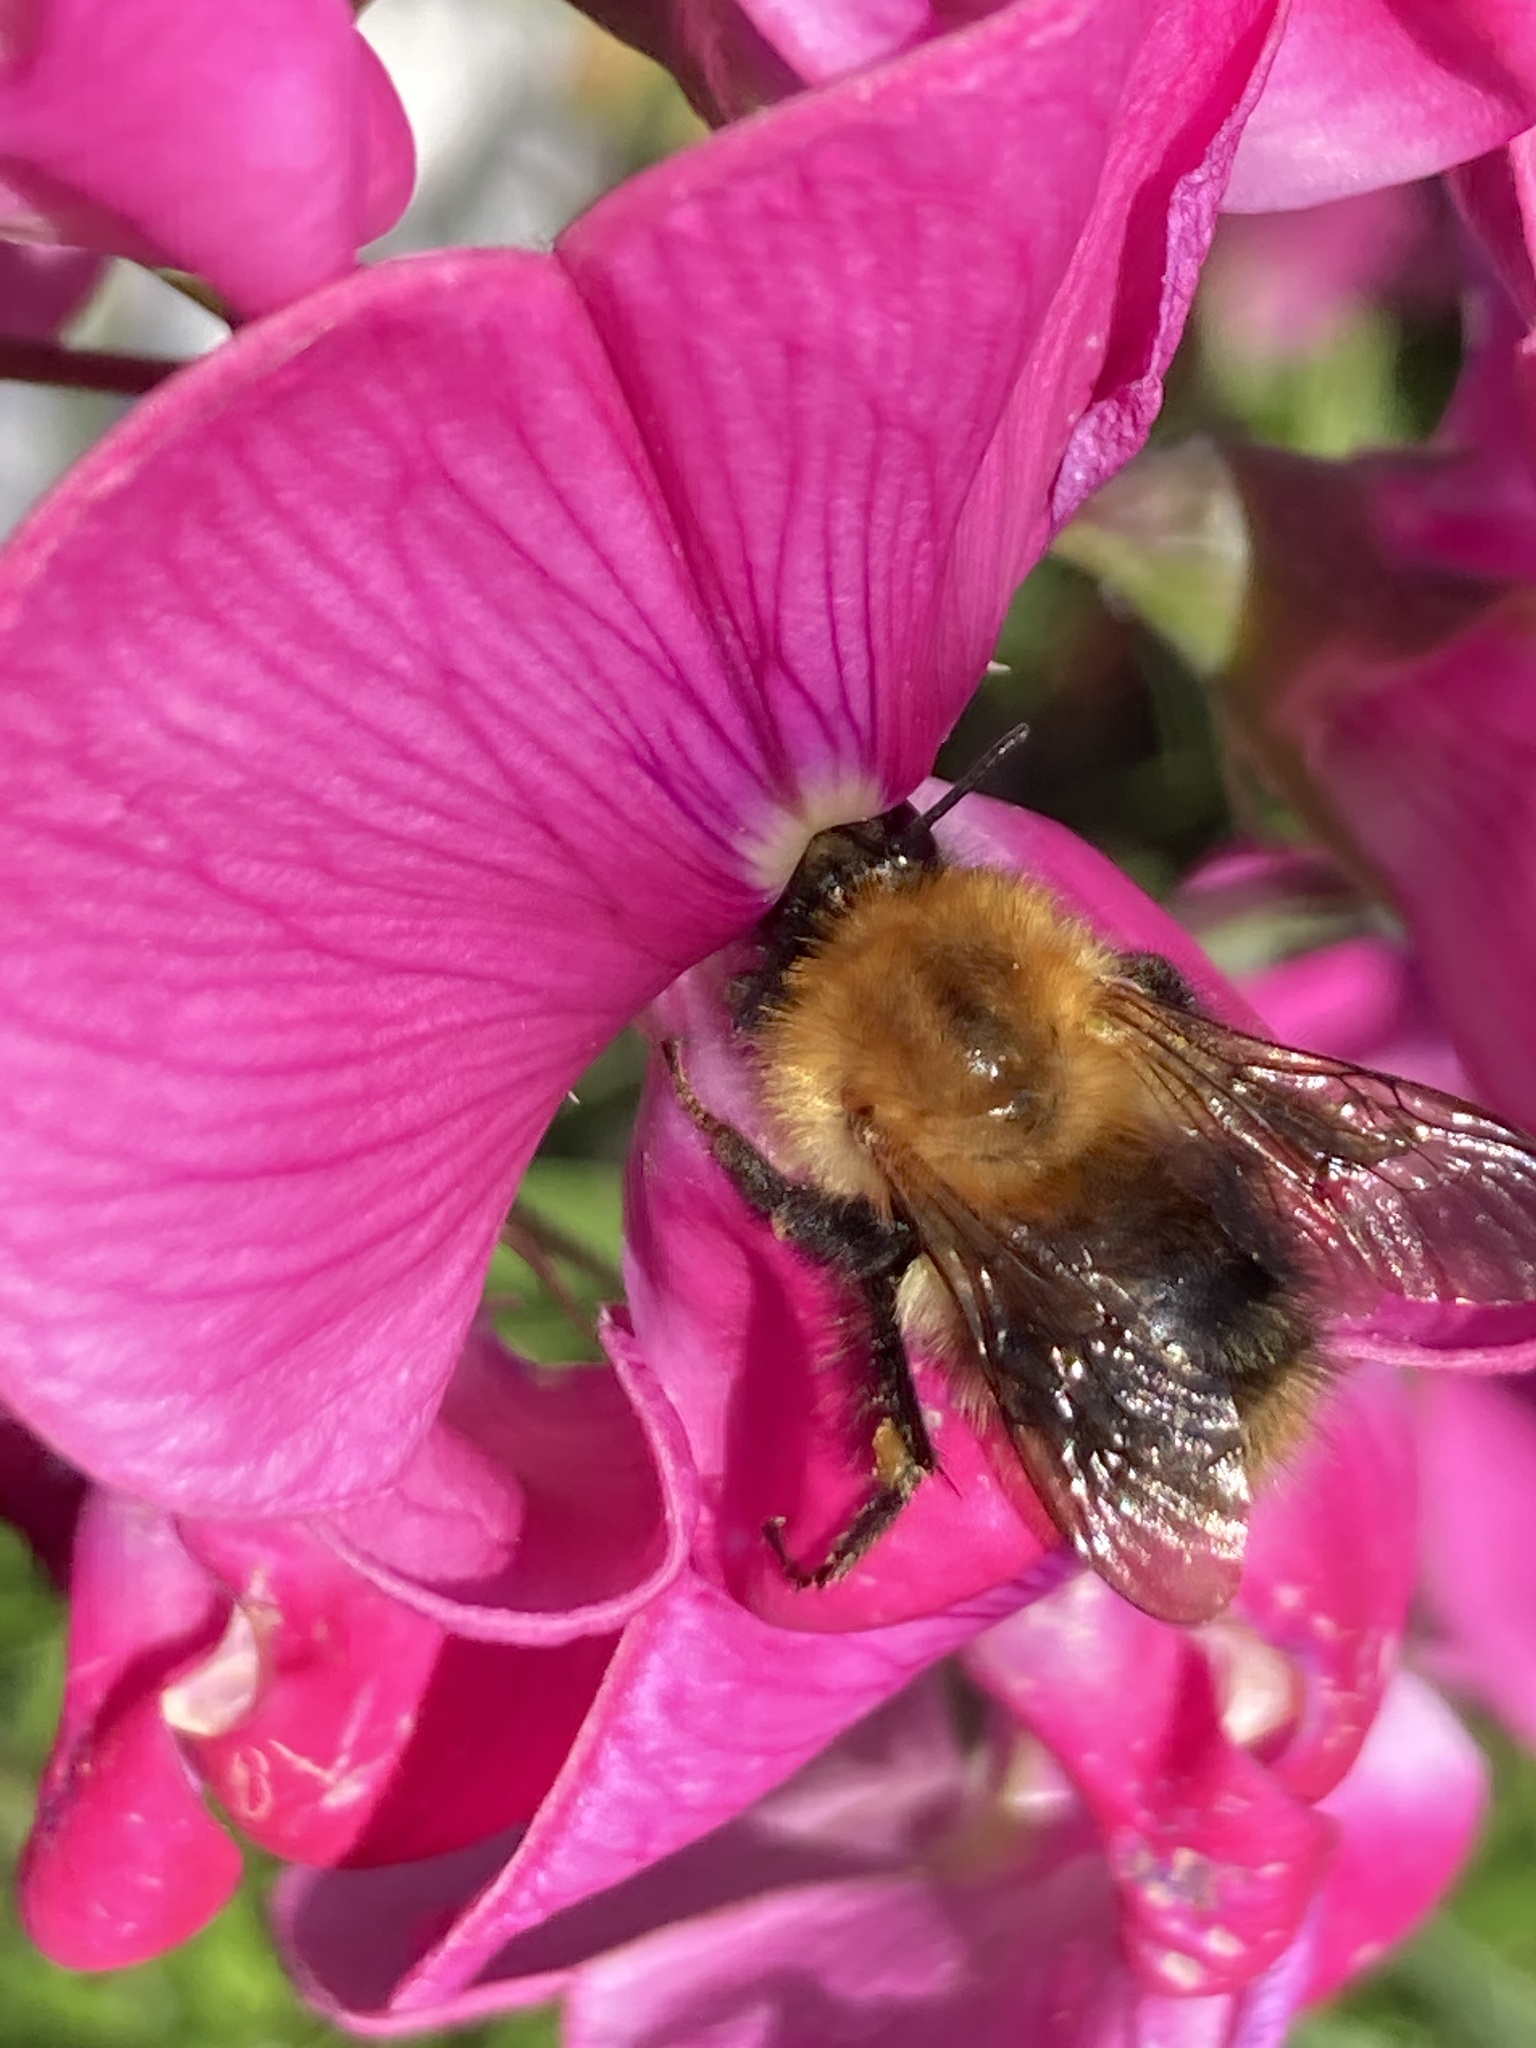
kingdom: Animalia
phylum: Arthropoda
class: Insecta
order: Hymenoptera
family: Apidae
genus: Bombus
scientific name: Bombus pascuorum
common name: Common carder bee
